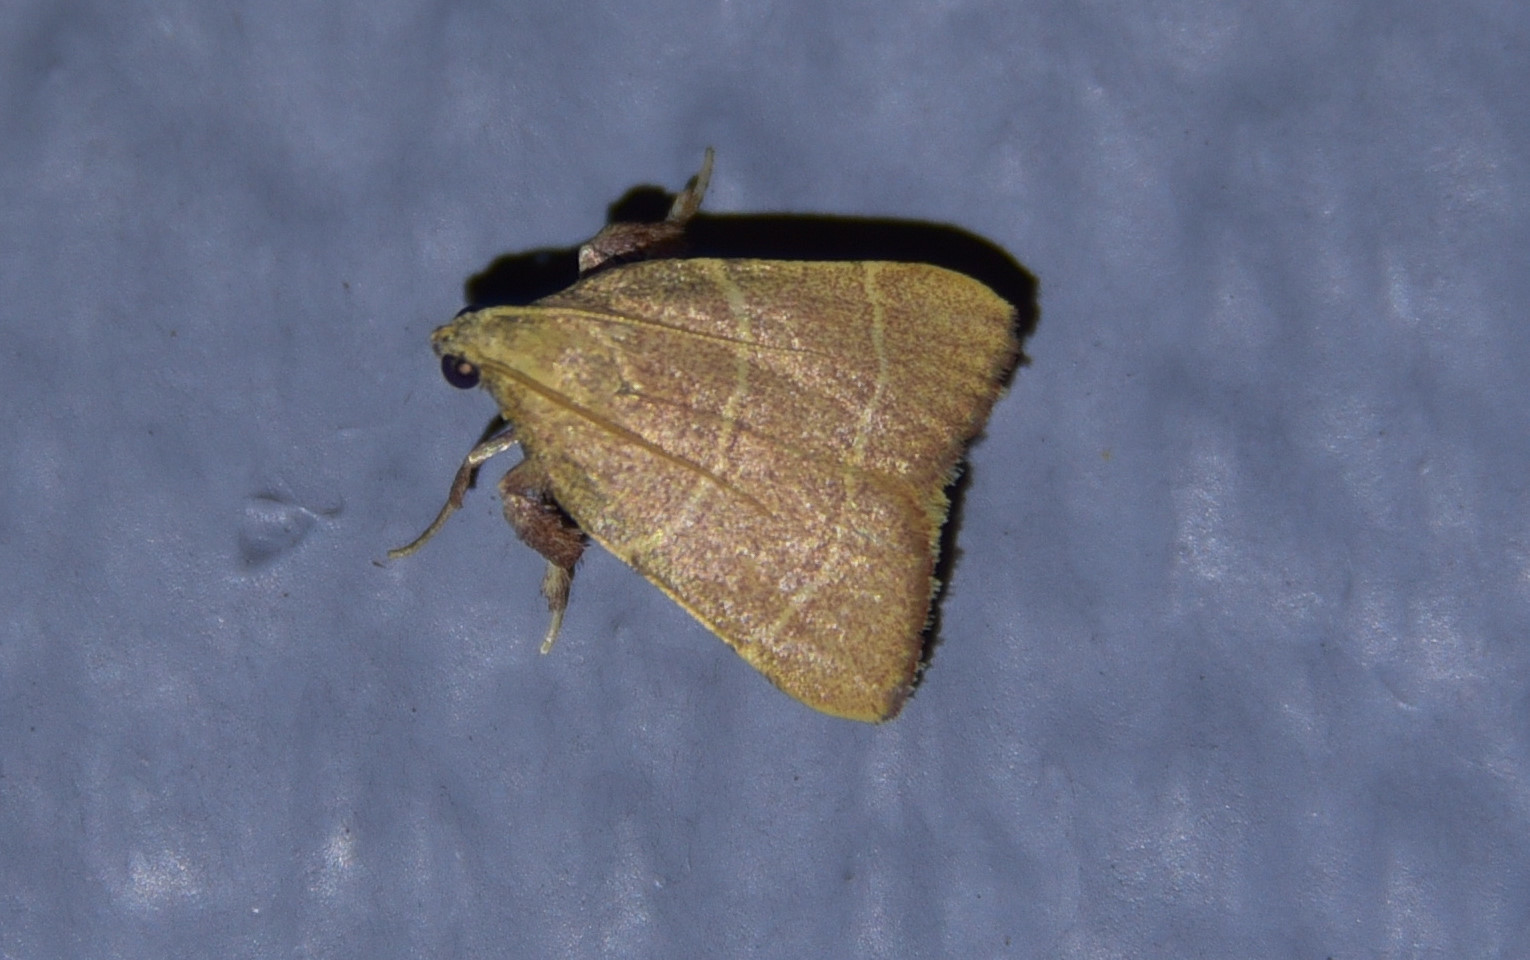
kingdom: Animalia
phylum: Arthropoda
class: Insecta
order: Lepidoptera
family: Pyralidae
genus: Parachma
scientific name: Parachma ochracealis
